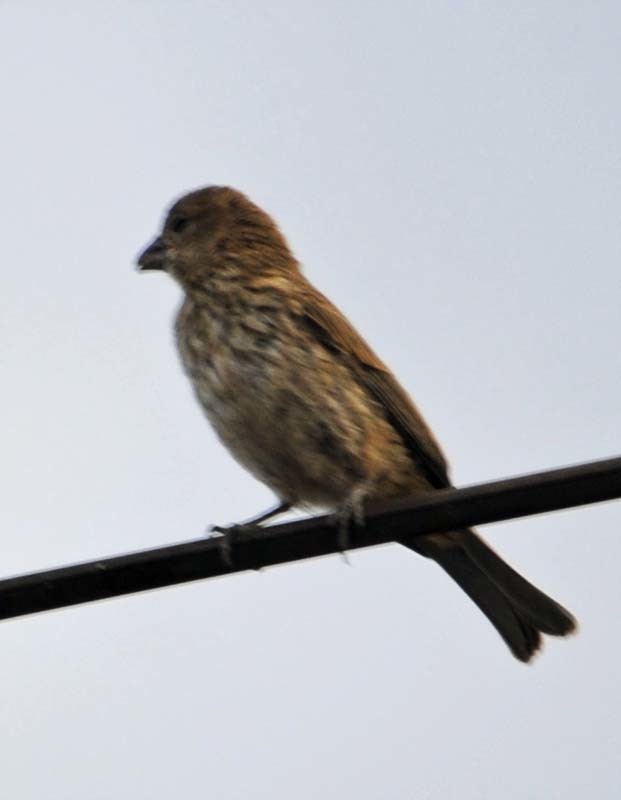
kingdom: Animalia
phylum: Chordata
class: Aves
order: Passeriformes
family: Fringillidae
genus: Haemorhous
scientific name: Haemorhous mexicanus
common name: House finch
